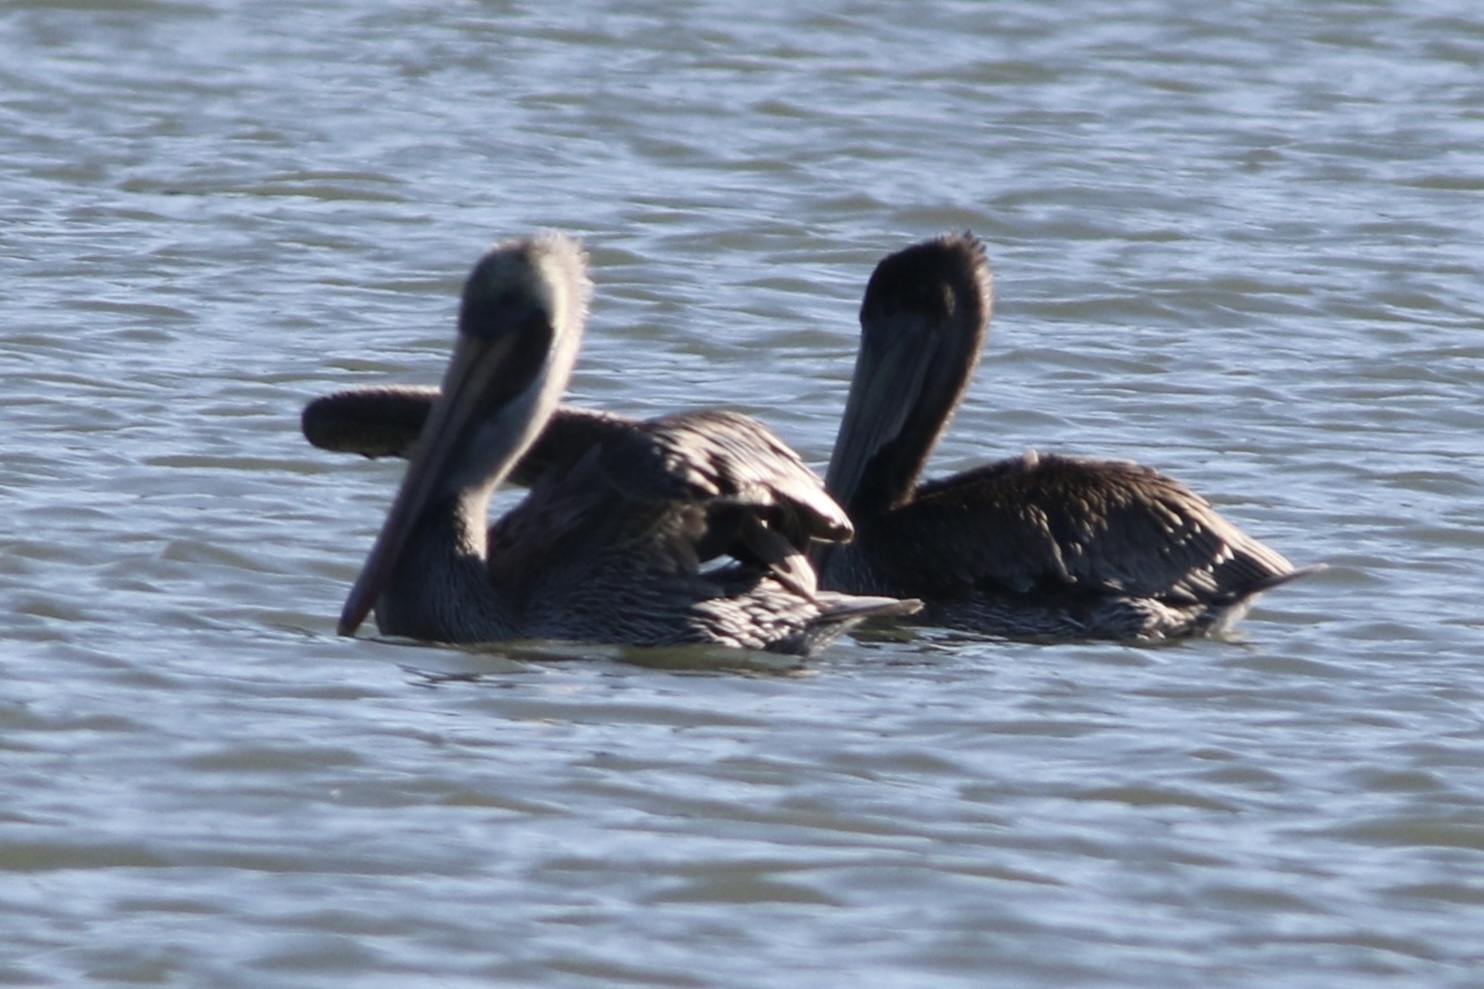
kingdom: Animalia
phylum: Chordata
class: Aves
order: Pelecaniformes
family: Pelecanidae
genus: Pelecanus
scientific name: Pelecanus occidentalis
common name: Brown pelican
